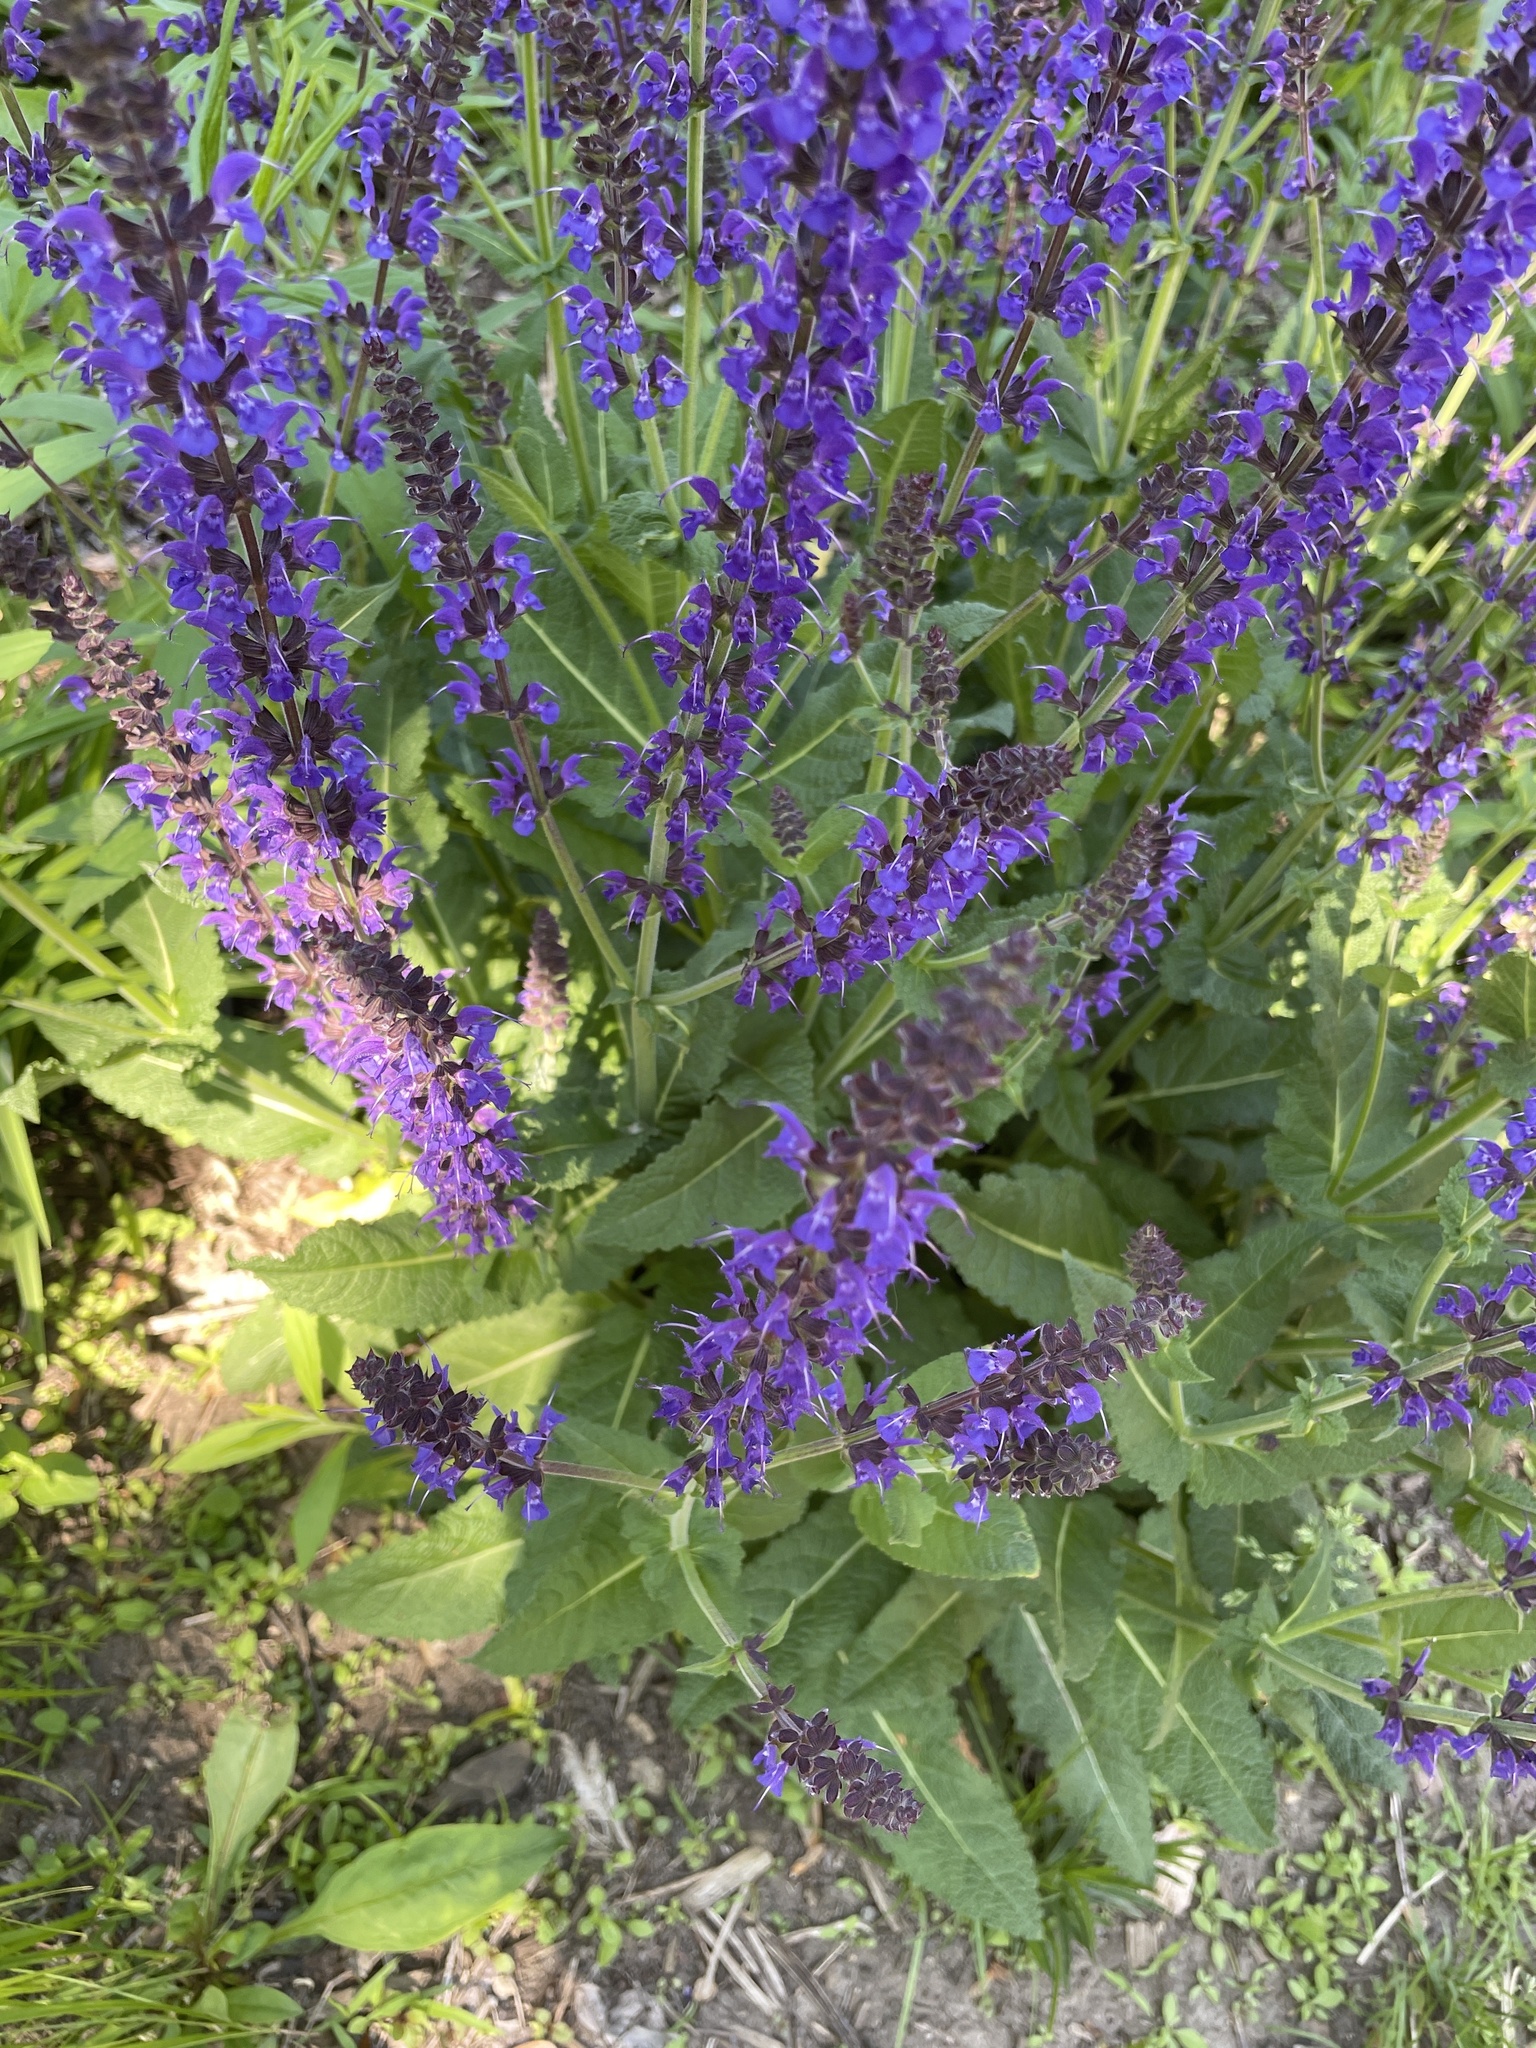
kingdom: Plantae
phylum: Tracheophyta
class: Magnoliopsida
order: Lamiales
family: Lamiaceae
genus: Salvia
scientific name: Salvia nemorosa
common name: Balkan clary
